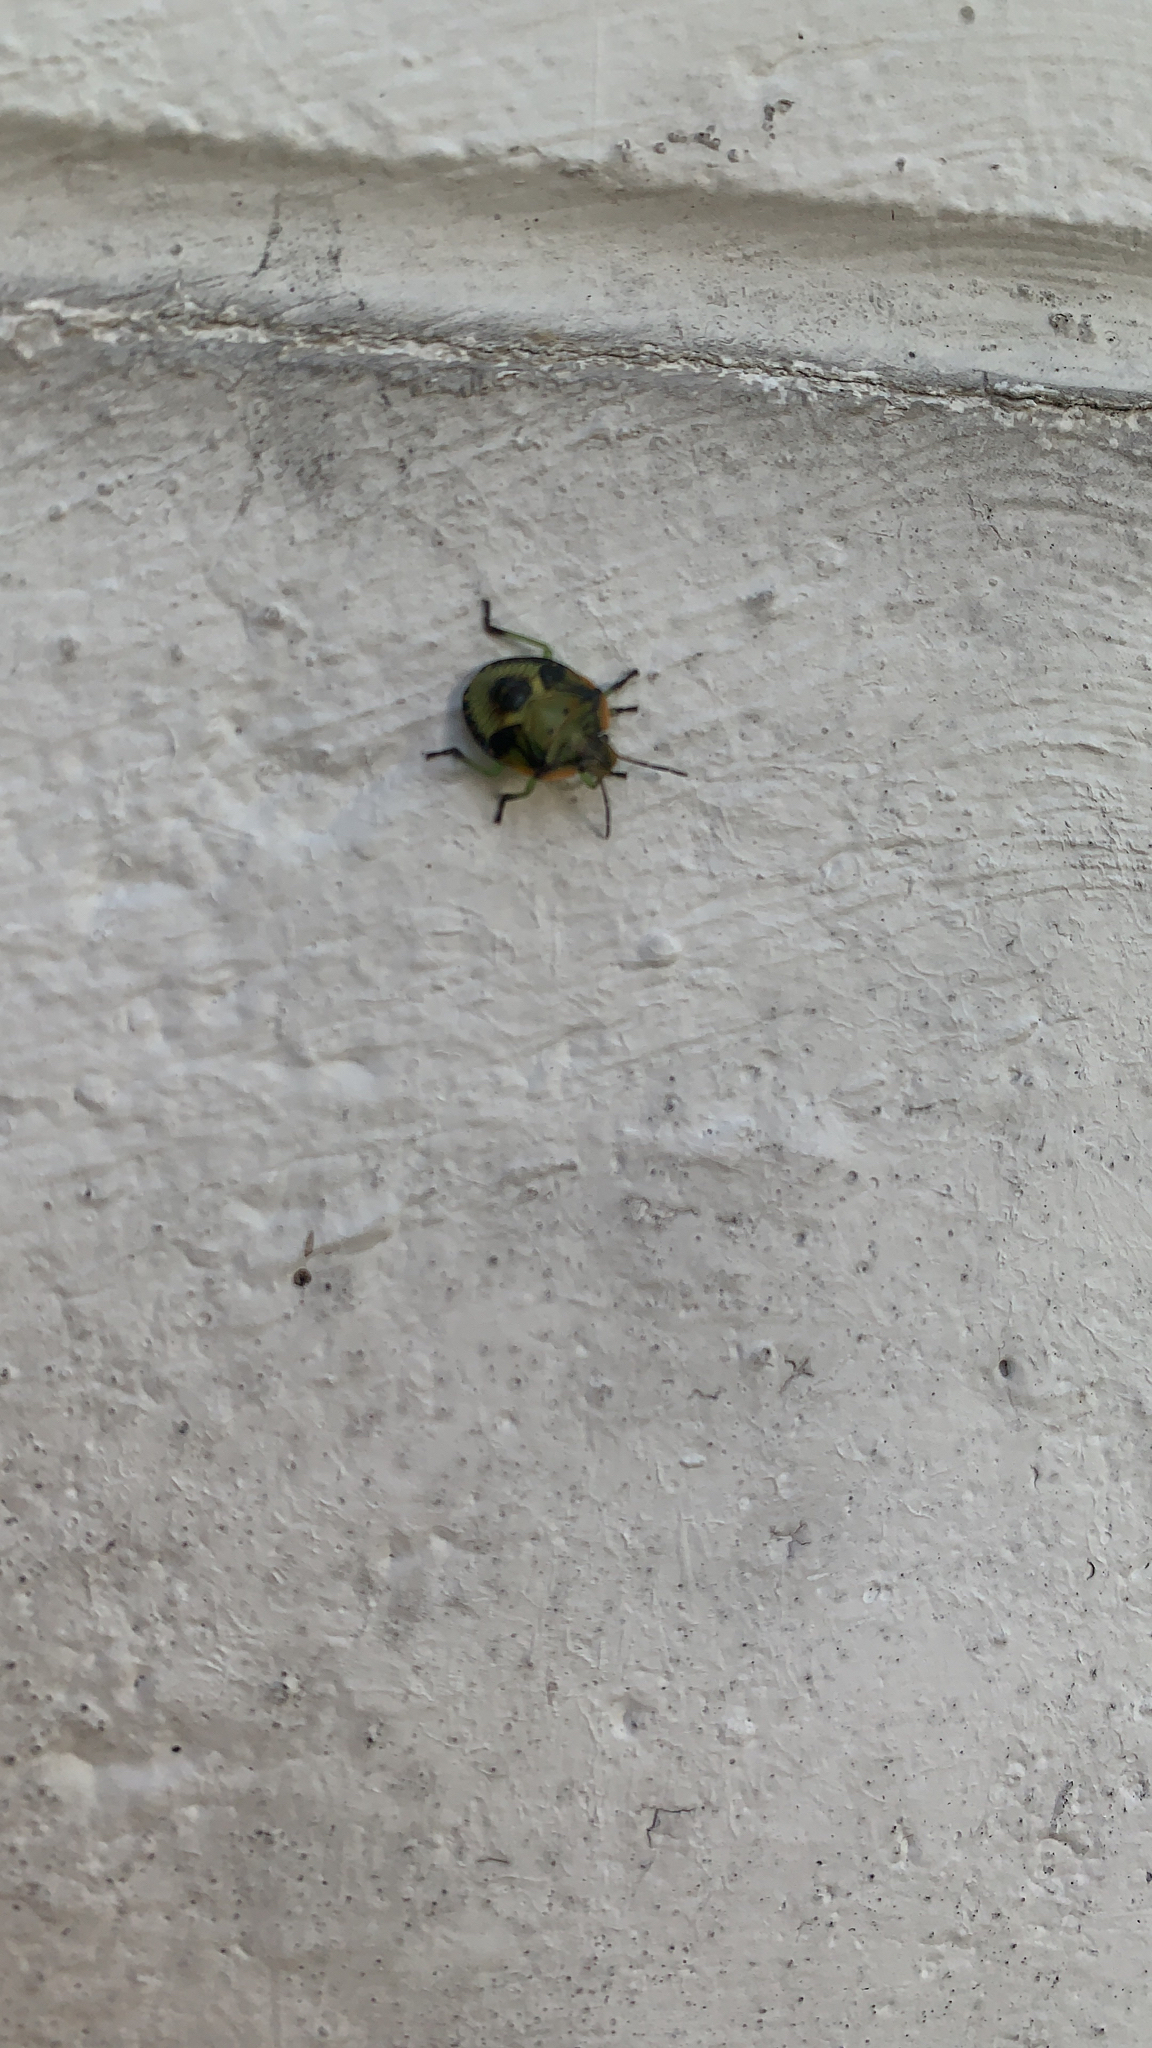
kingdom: Animalia
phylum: Arthropoda
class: Insecta
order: Hemiptera
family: Pentatomidae
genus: Chinavia
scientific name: Chinavia hilaris
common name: Green stink bug
